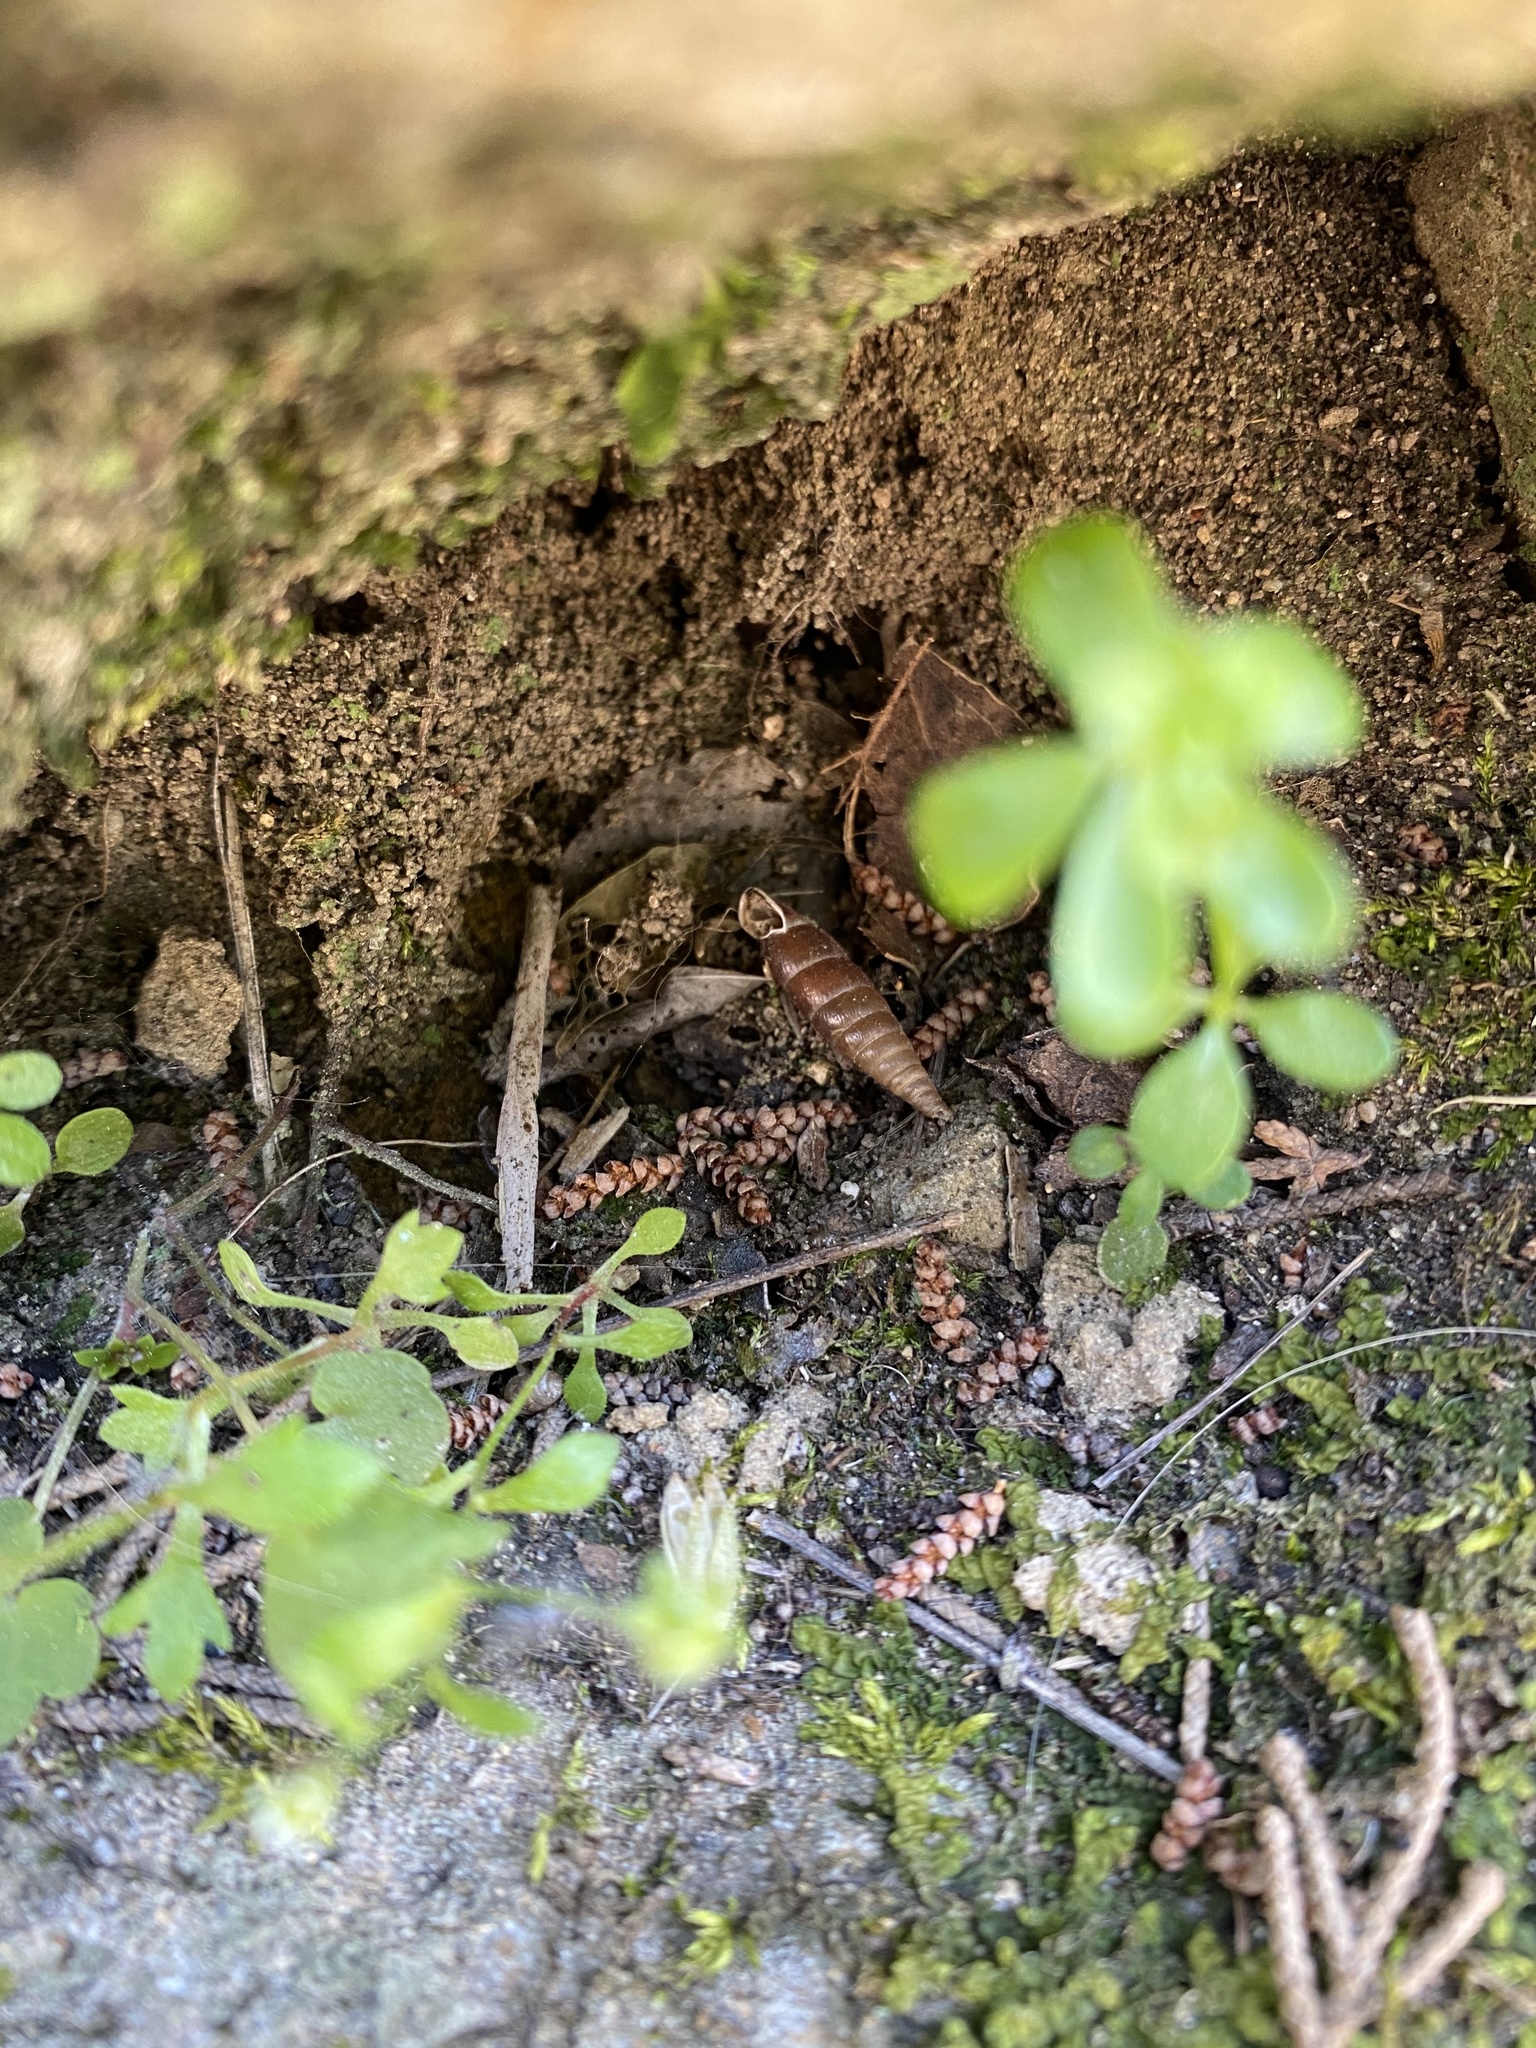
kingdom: Animalia
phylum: Mollusca
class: Gastropoda
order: Stylommatophora
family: Clausiliidae
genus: Cochlodina
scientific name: Cochlodina bidens
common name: Snail
